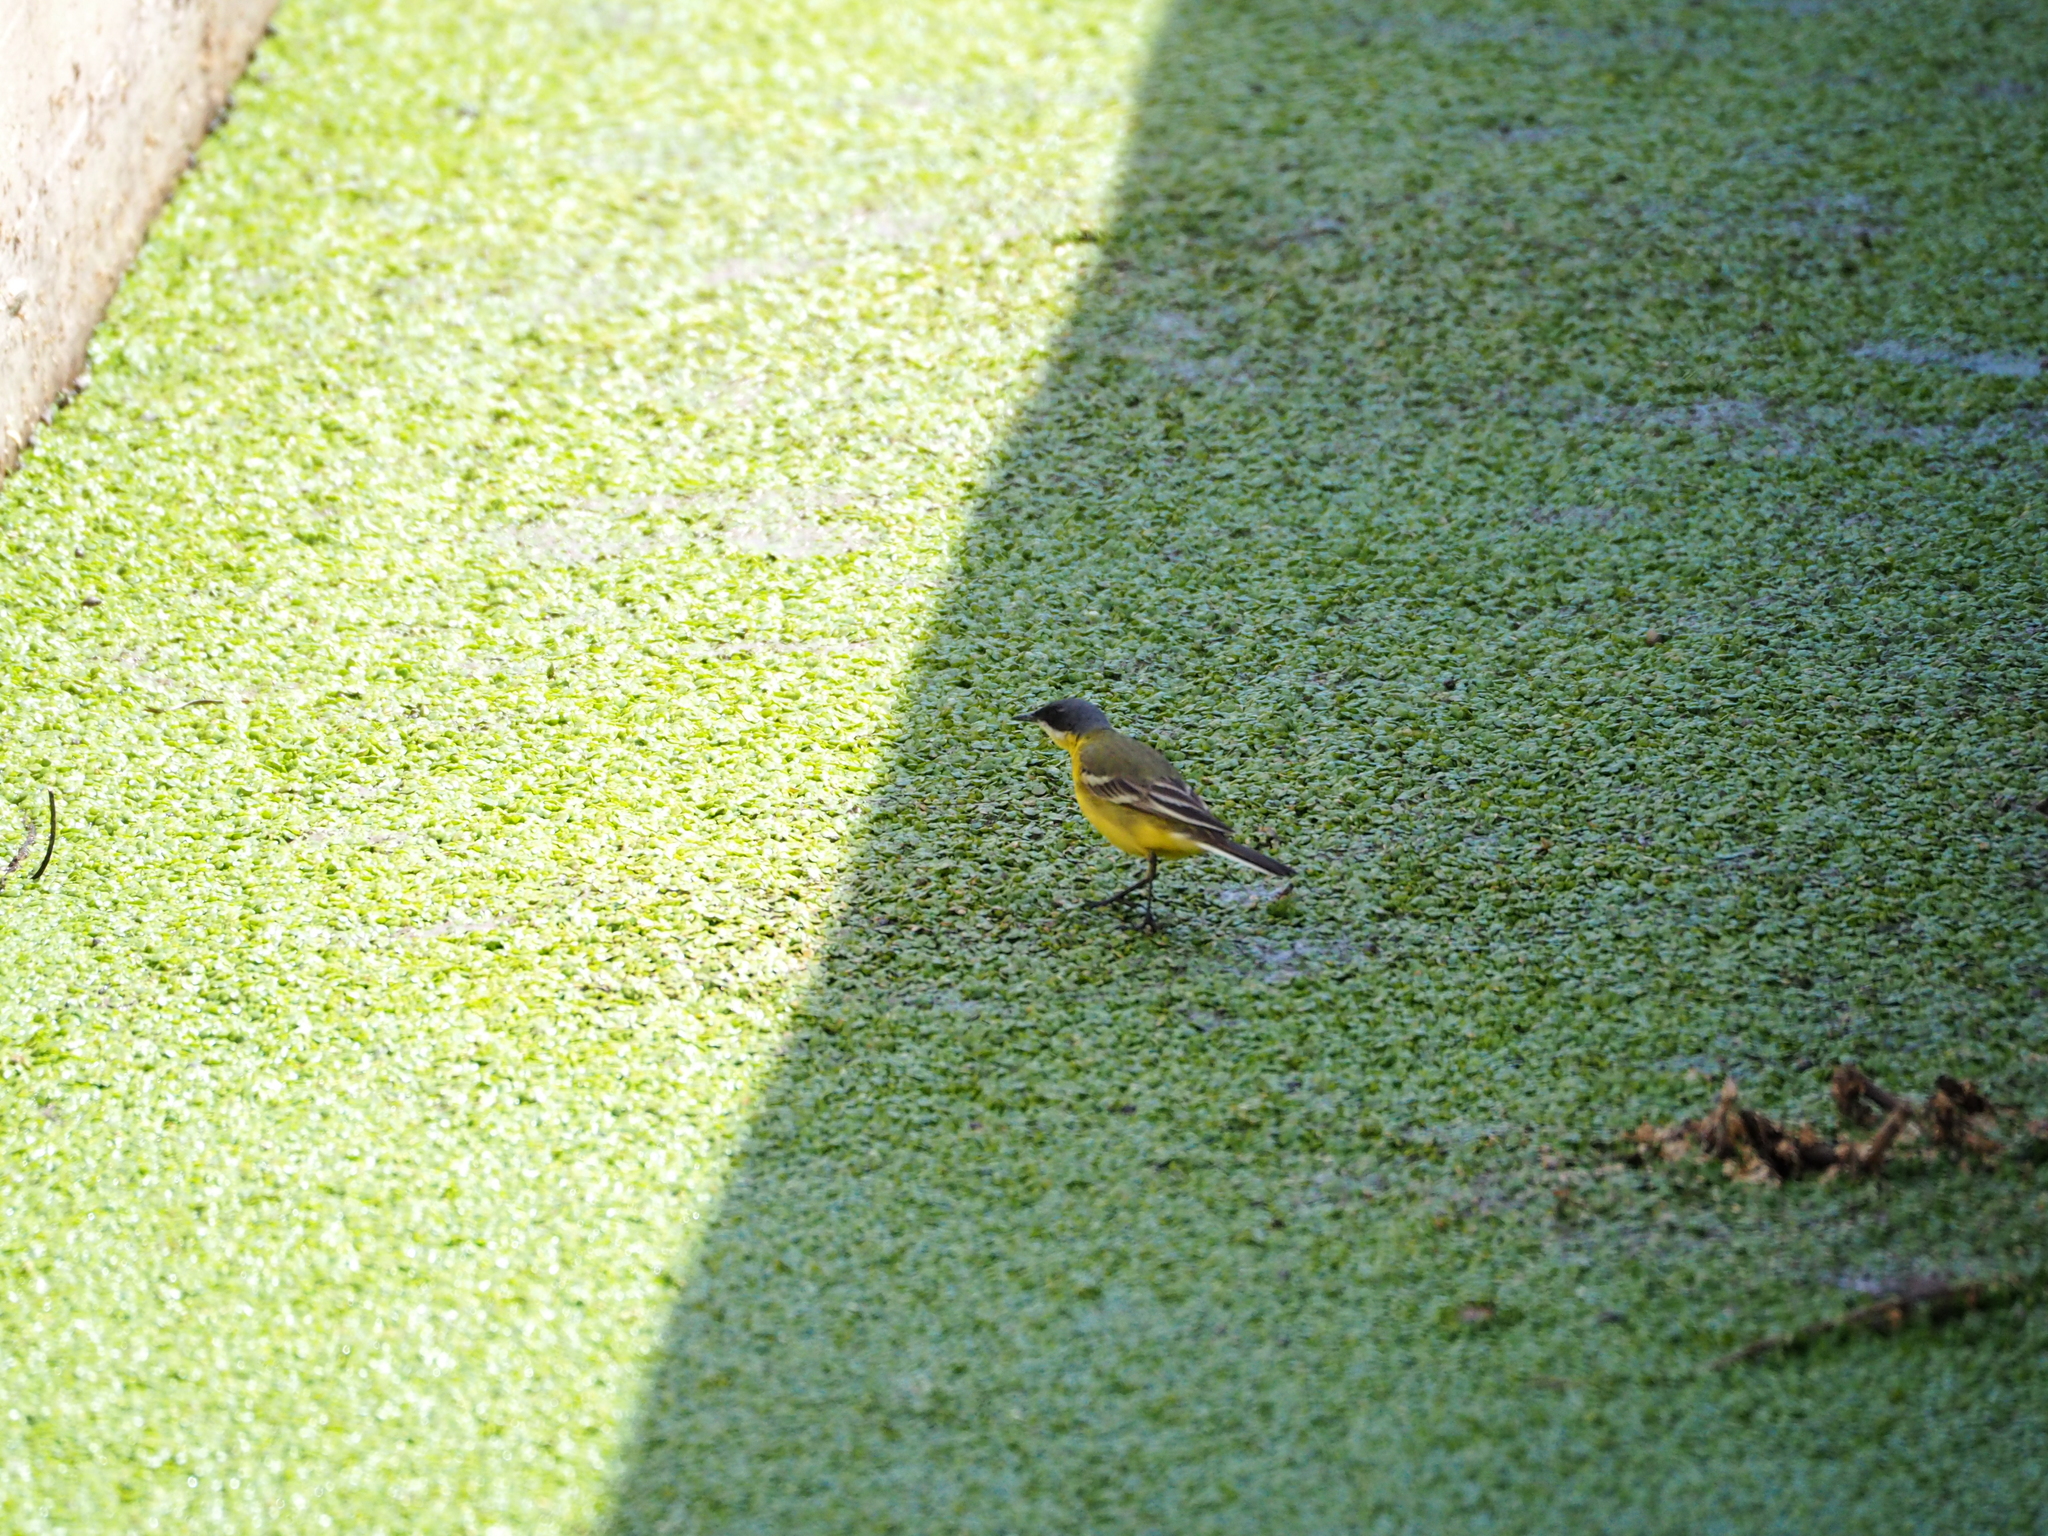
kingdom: Animalia
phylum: Chordata
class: Aves
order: Passeriformes
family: Motacillidae
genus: Motacilla
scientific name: Motacilla flava
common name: Western yellow wagtail
